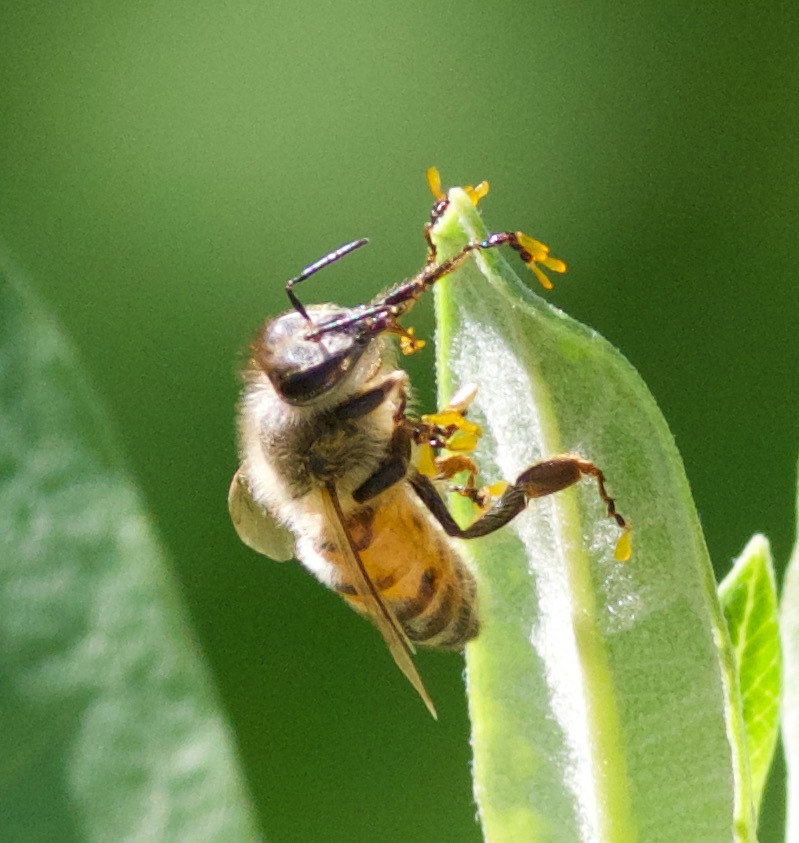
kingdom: Animalia
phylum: Arthropoda
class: Insecta
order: Hymenoptera
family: Apidae
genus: Apis
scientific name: Apis mellifera
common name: Honey bee
